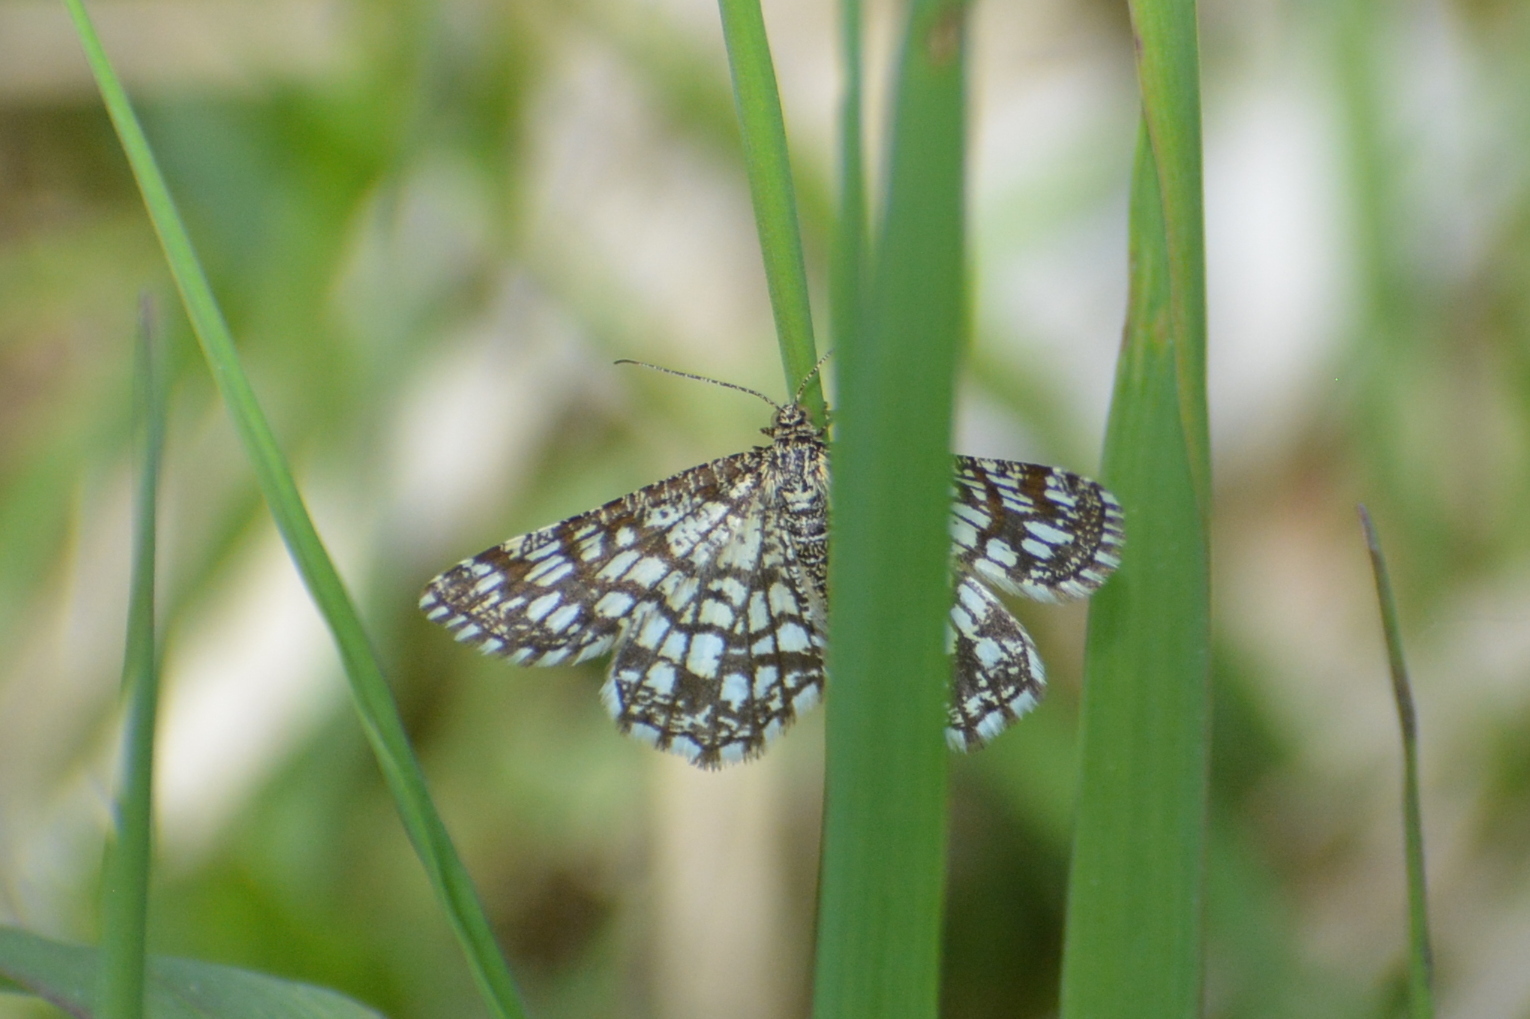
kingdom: Animalia
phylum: Arthropoda
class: Insecta
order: Lepidoptera
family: Geometridae
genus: Chiasmia
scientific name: Chiasmia clathrata
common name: Latticed heath
